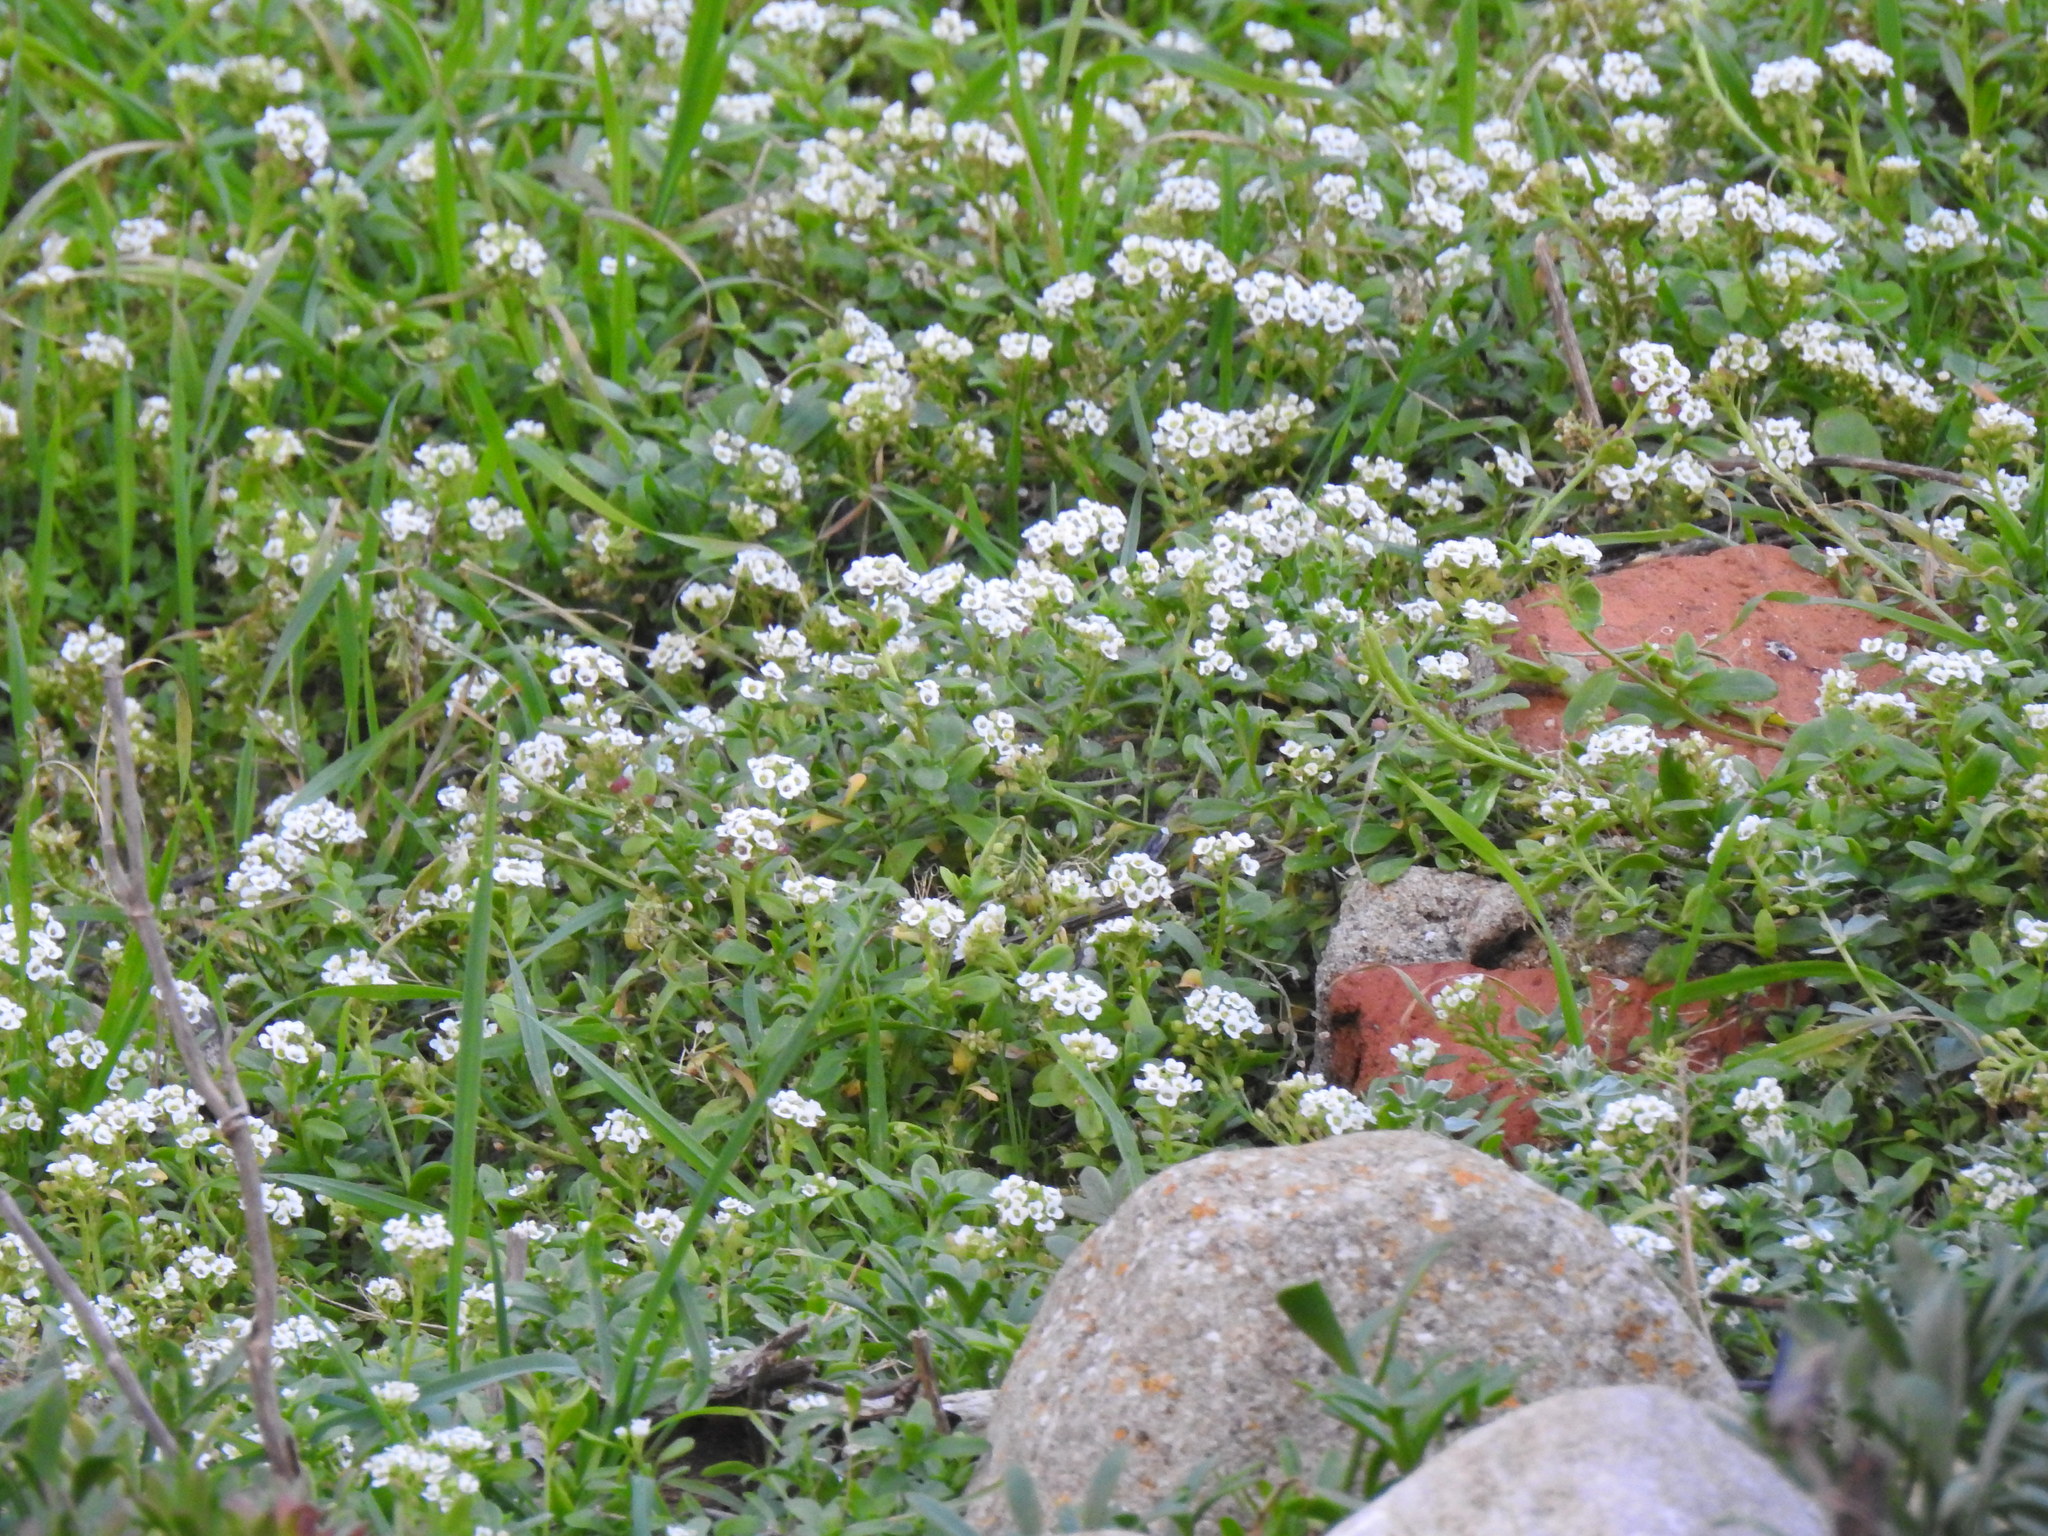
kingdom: Plantae
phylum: Tracheophyta
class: Magnoliopsida
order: Brassicales
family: Brassicaceae
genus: Lobularia
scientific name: Lobularia maritima
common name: Sweet alison
